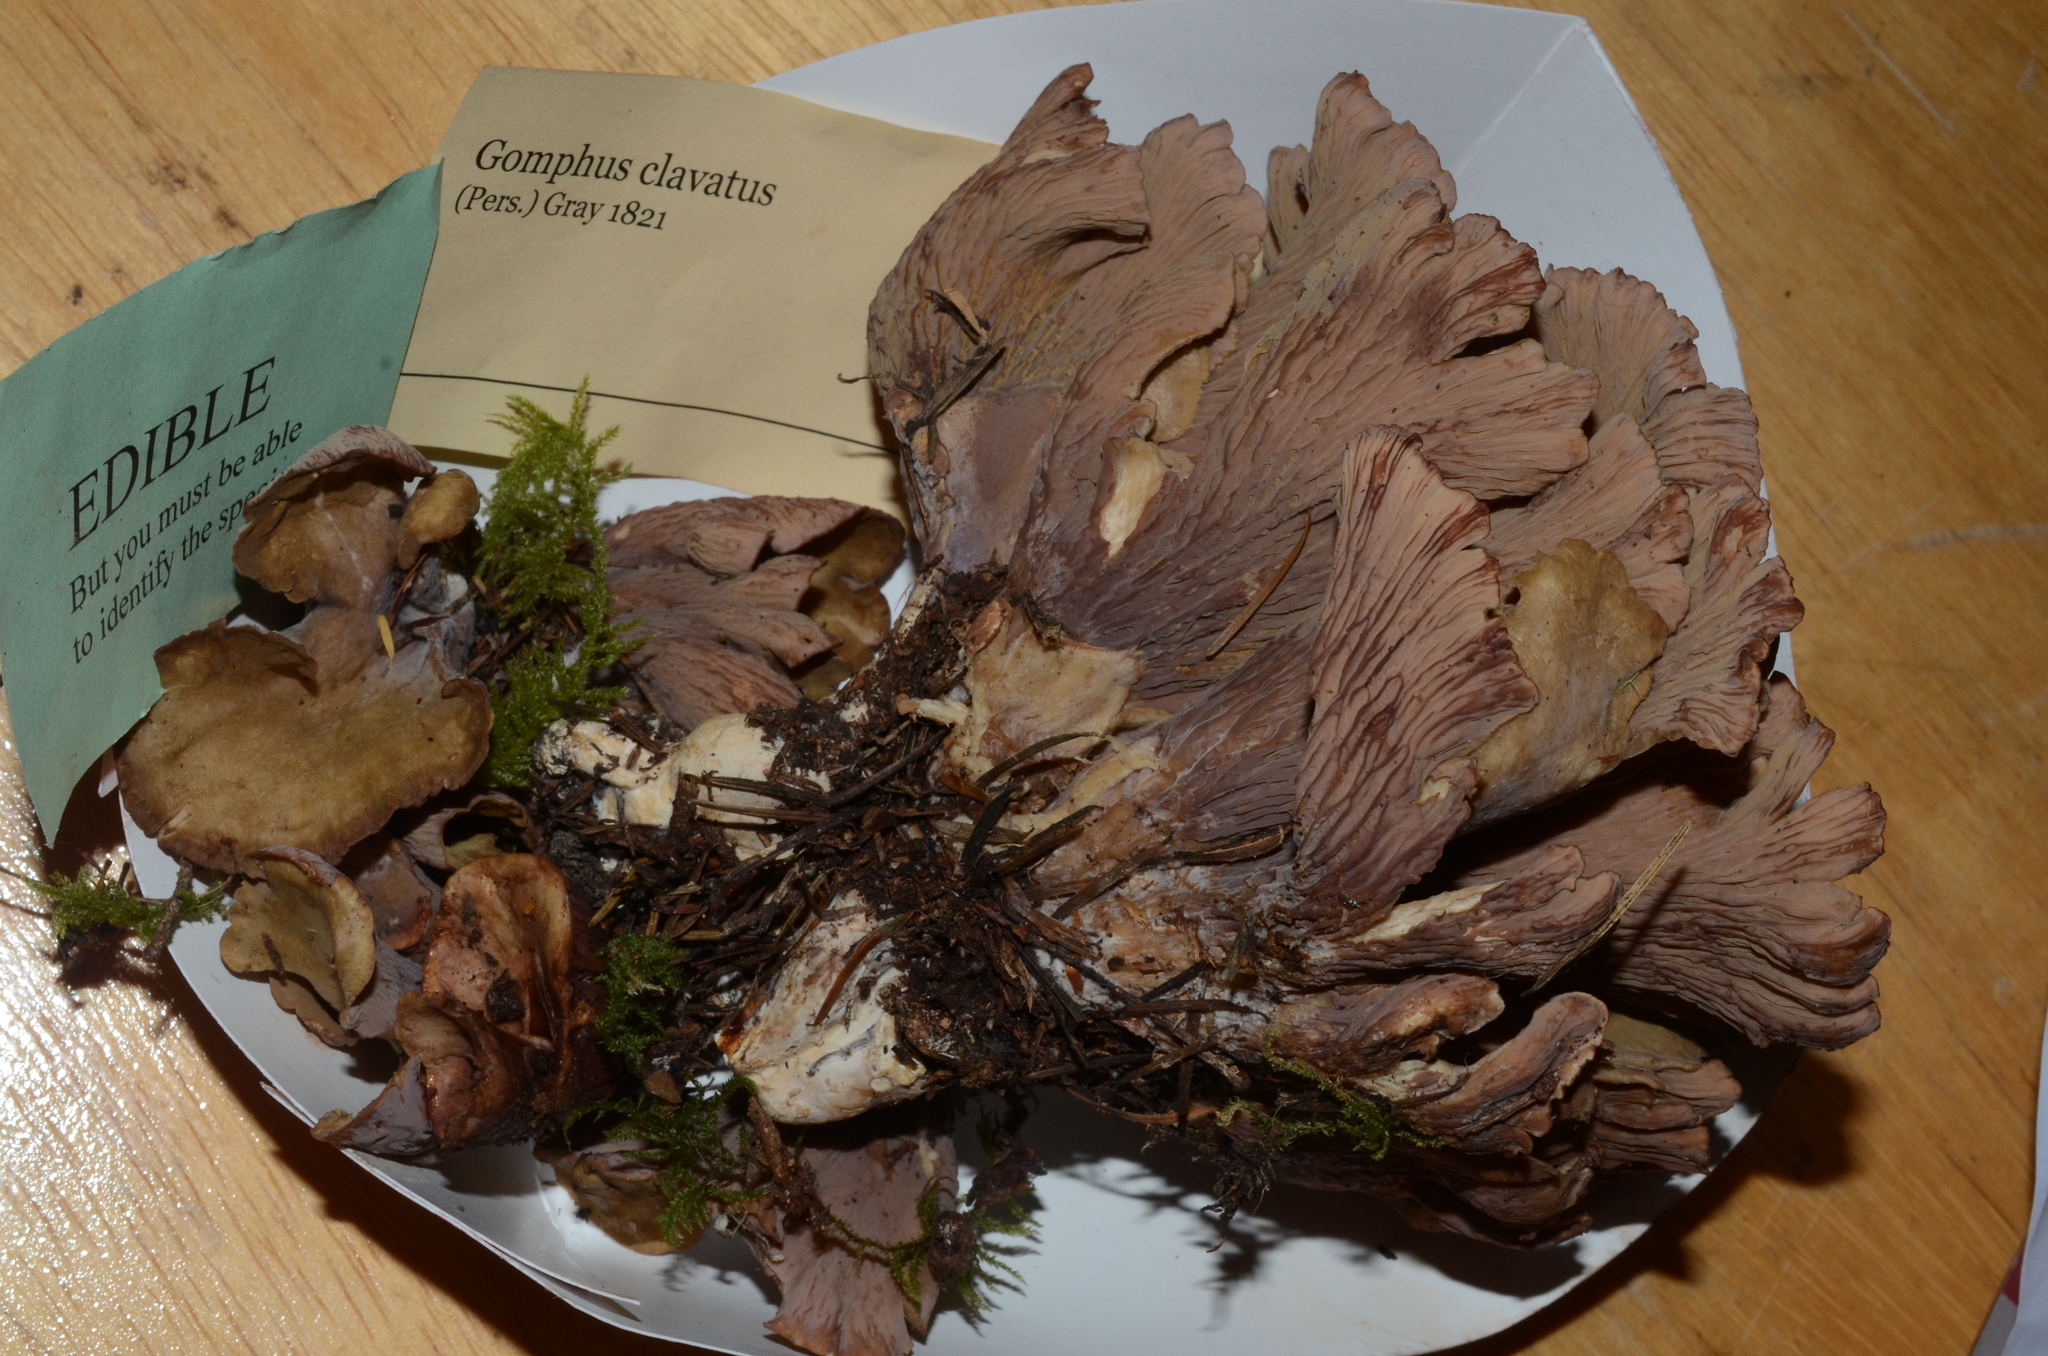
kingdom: Fungi
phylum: Basidiomycota
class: Agaricomycetes
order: Gomphales
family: Gomphaceae
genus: Gomphus
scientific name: Gomphus clavatus
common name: Pig's ear
